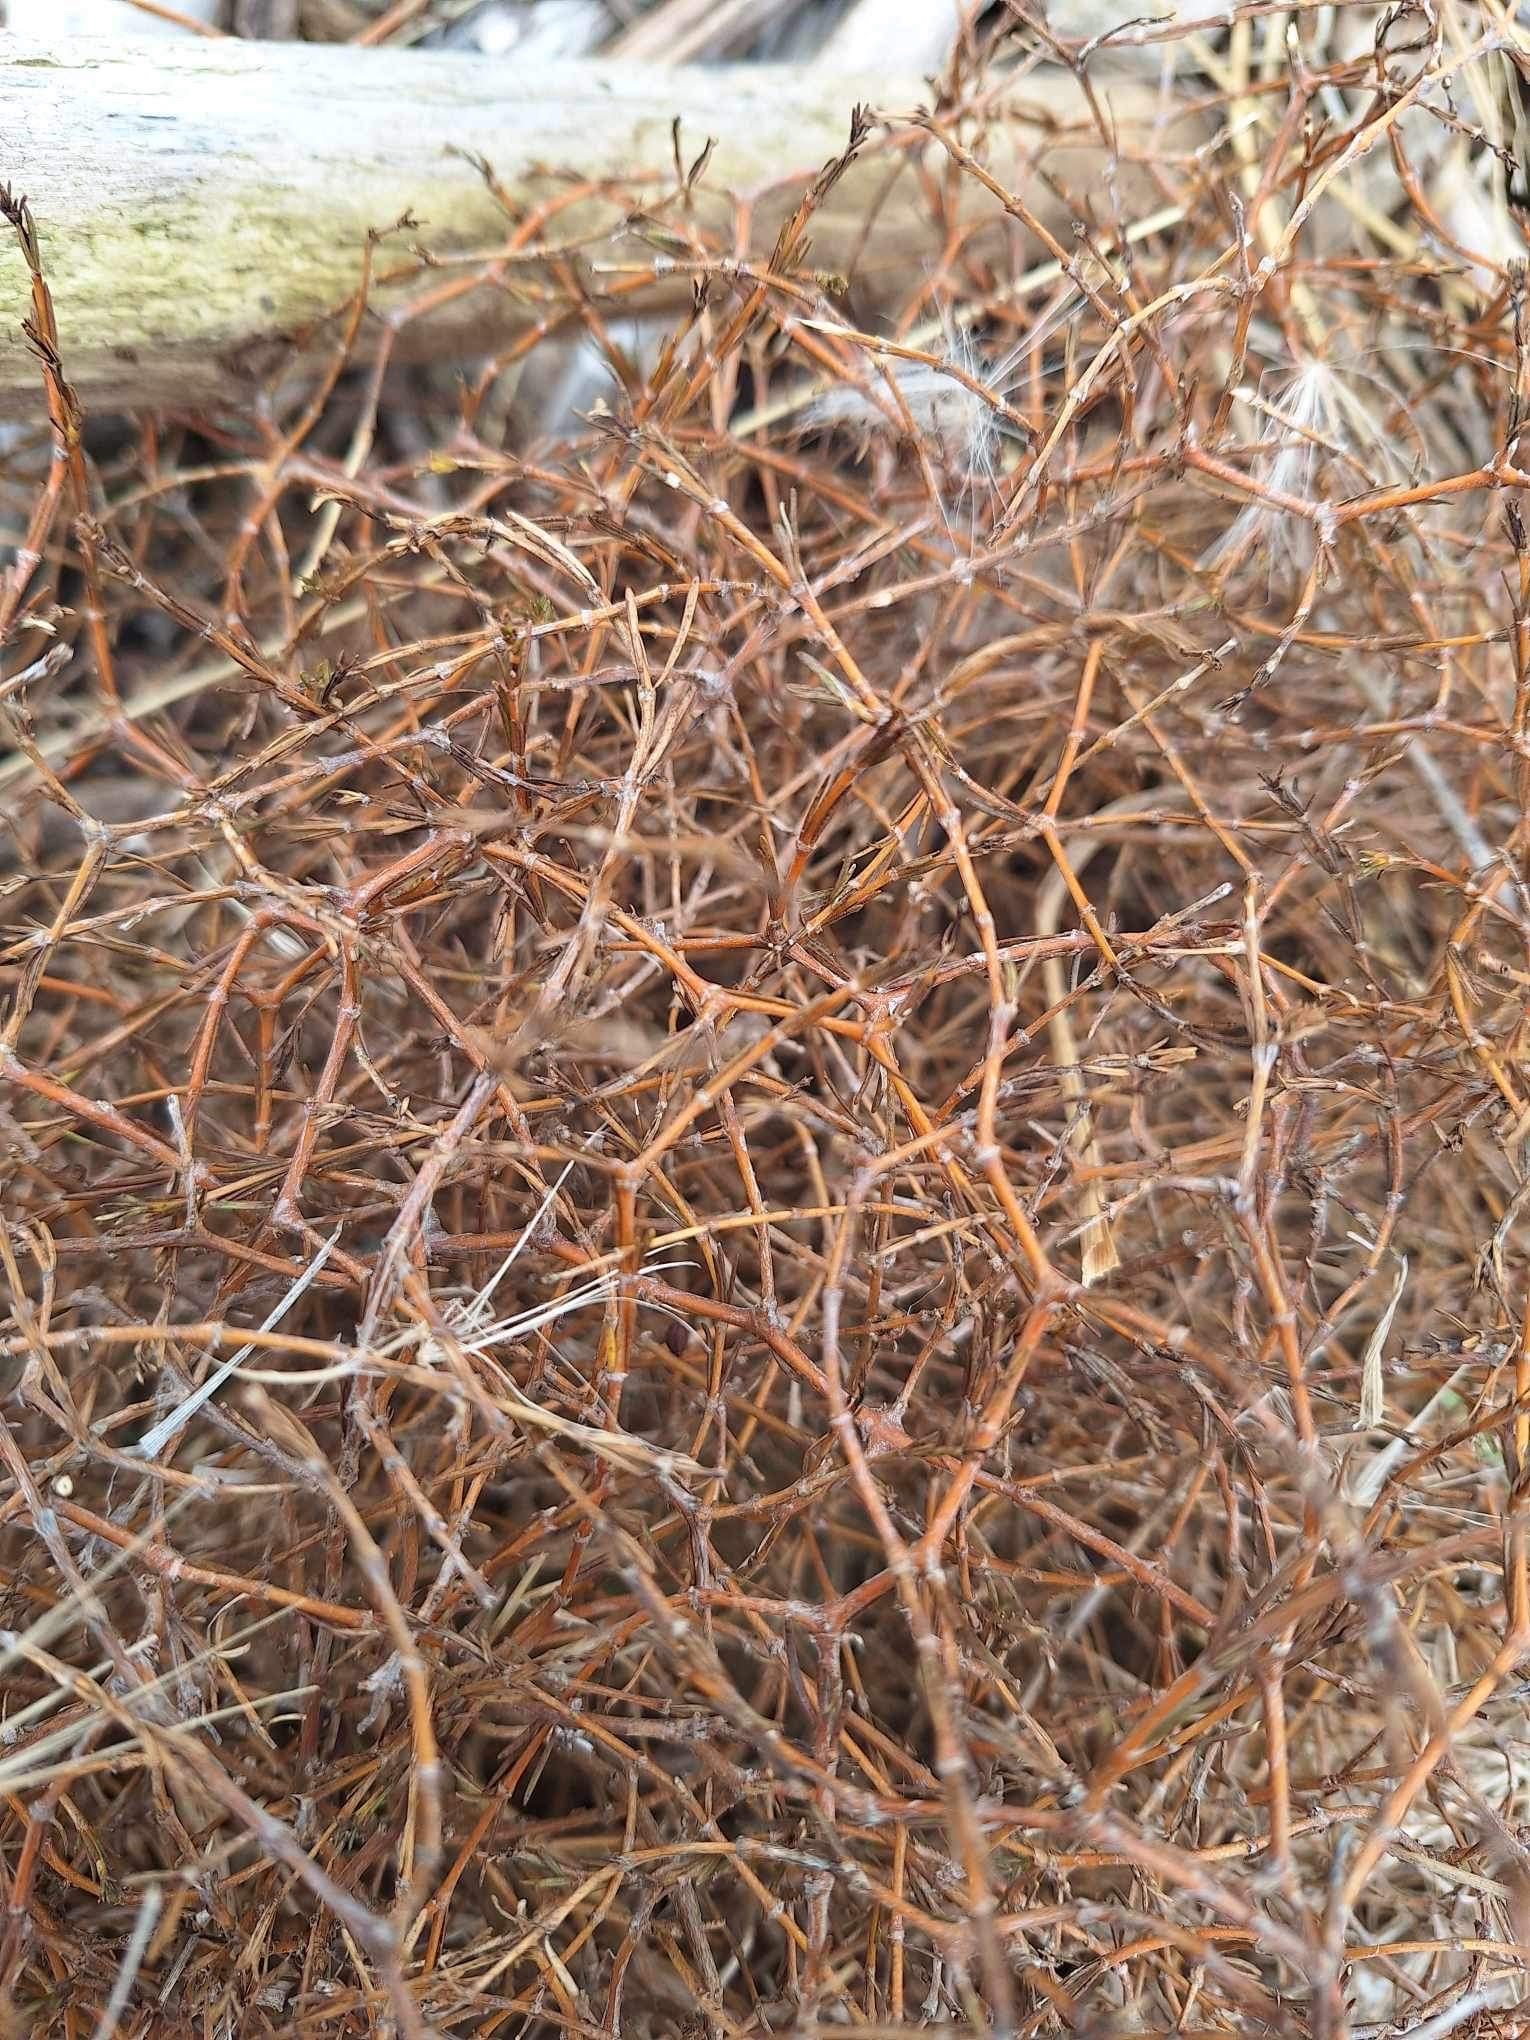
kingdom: Plantae
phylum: Tracheophyta
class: Magnoliopsida
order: Gentianales
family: Rubiaceae
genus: Coprosma
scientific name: Coprosma acerosa
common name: Sand coprosma
